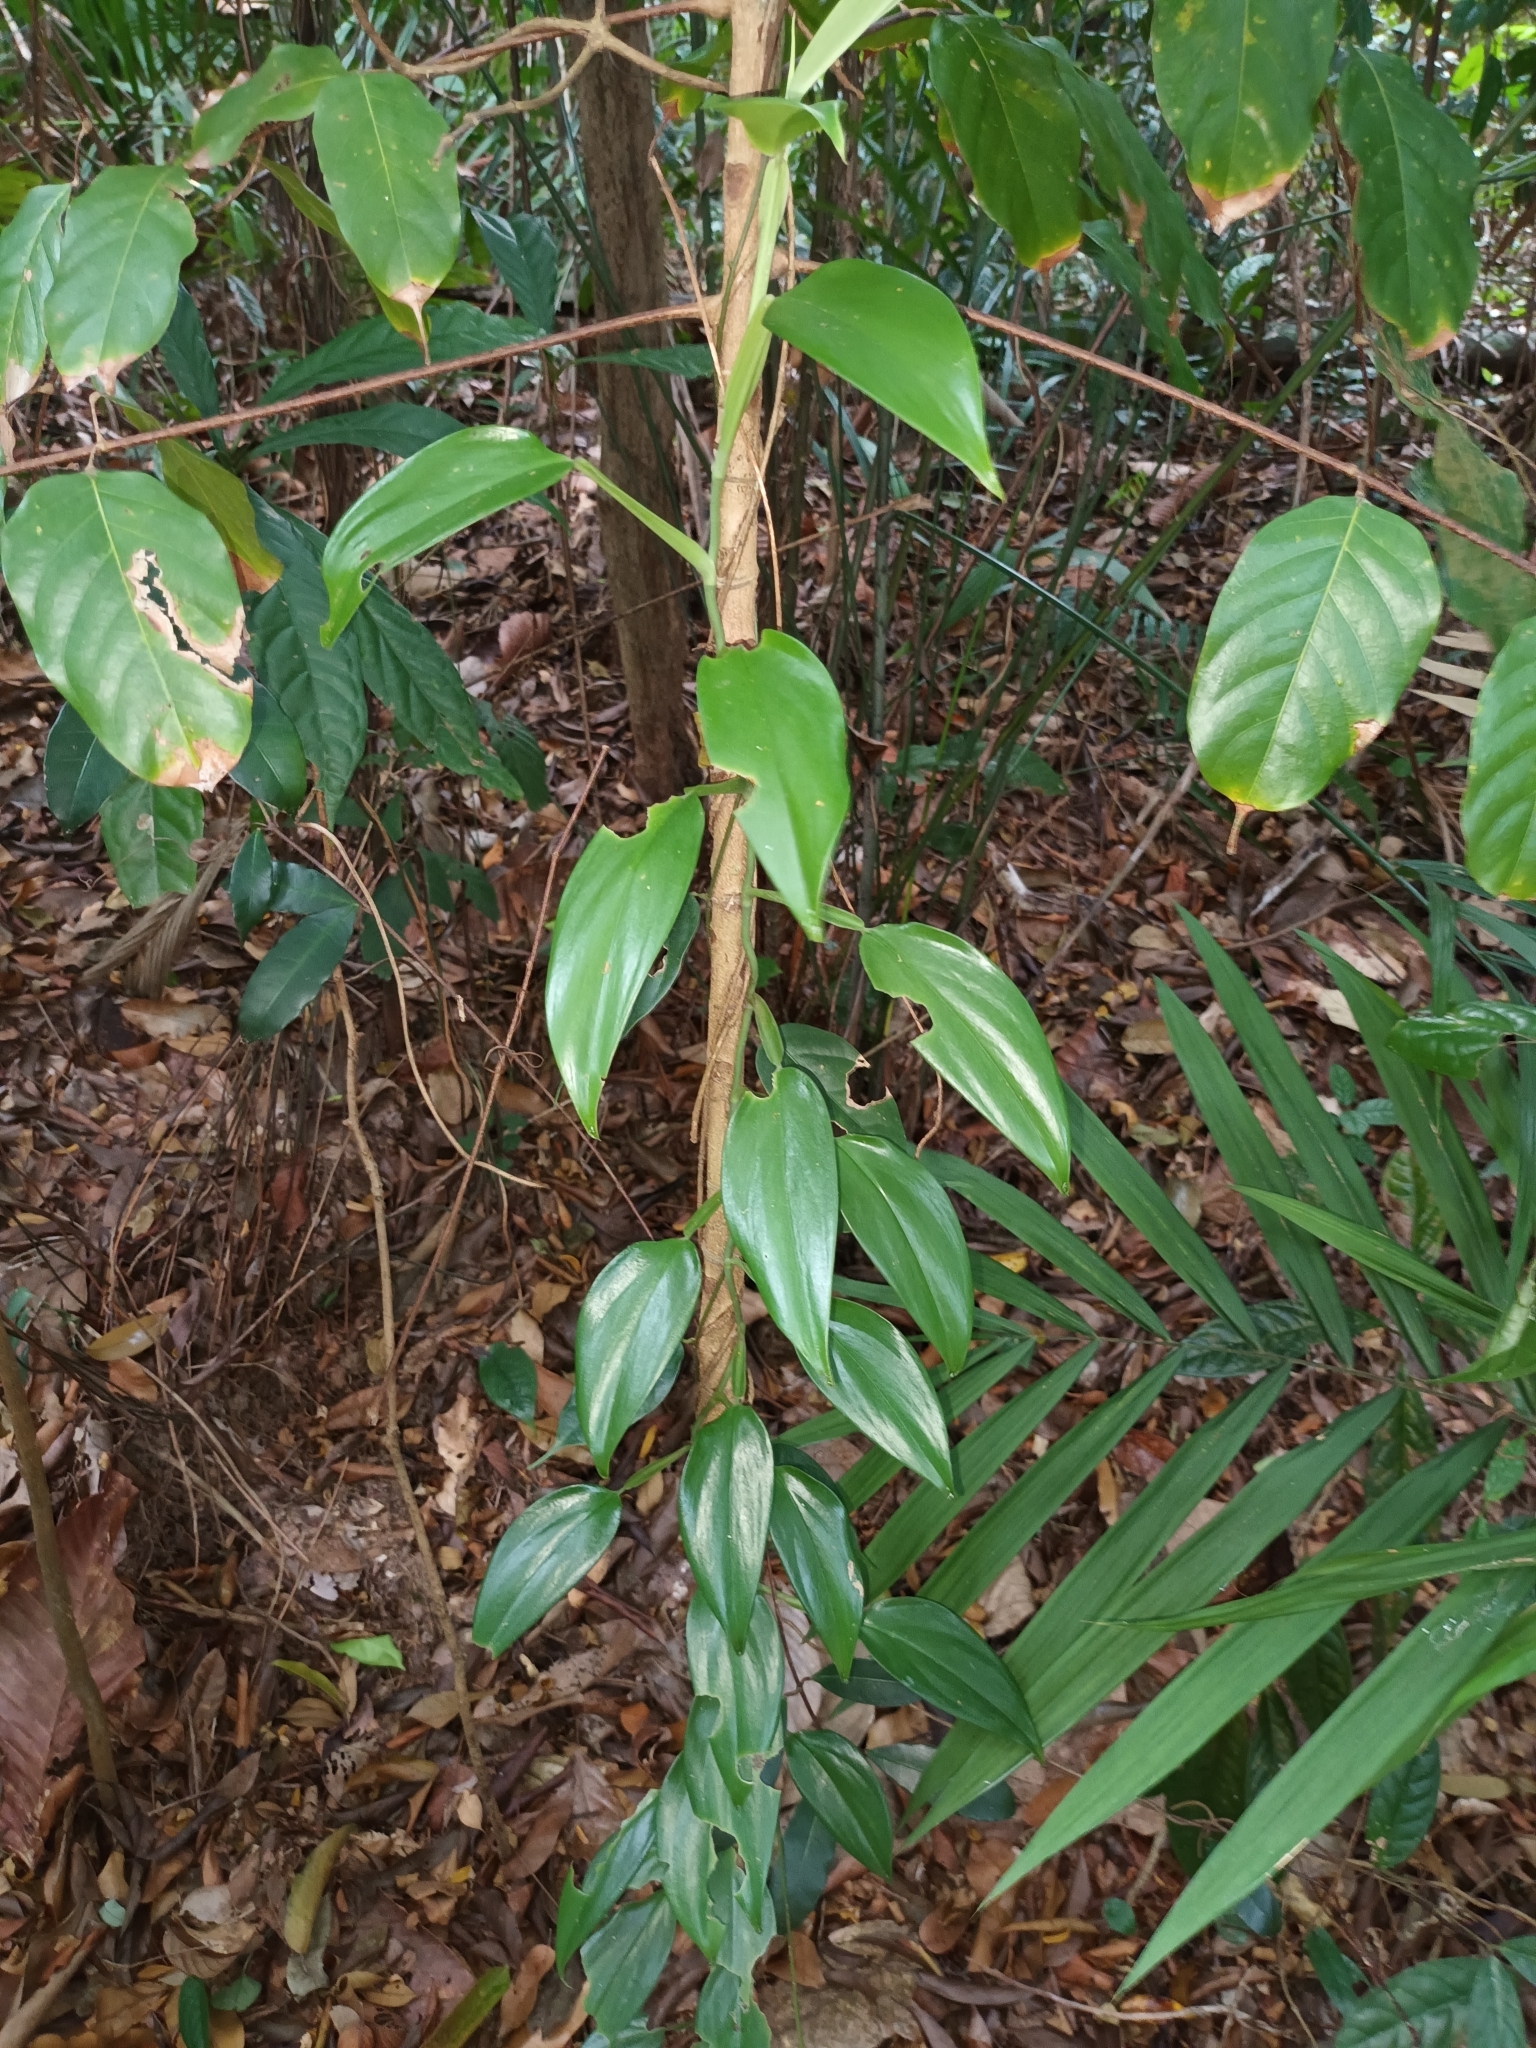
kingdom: Plantae
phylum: Tracheophyta
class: Liliopsida
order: Alismatales
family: Araceae
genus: Scindapsus
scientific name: Scindapsus perakensis
